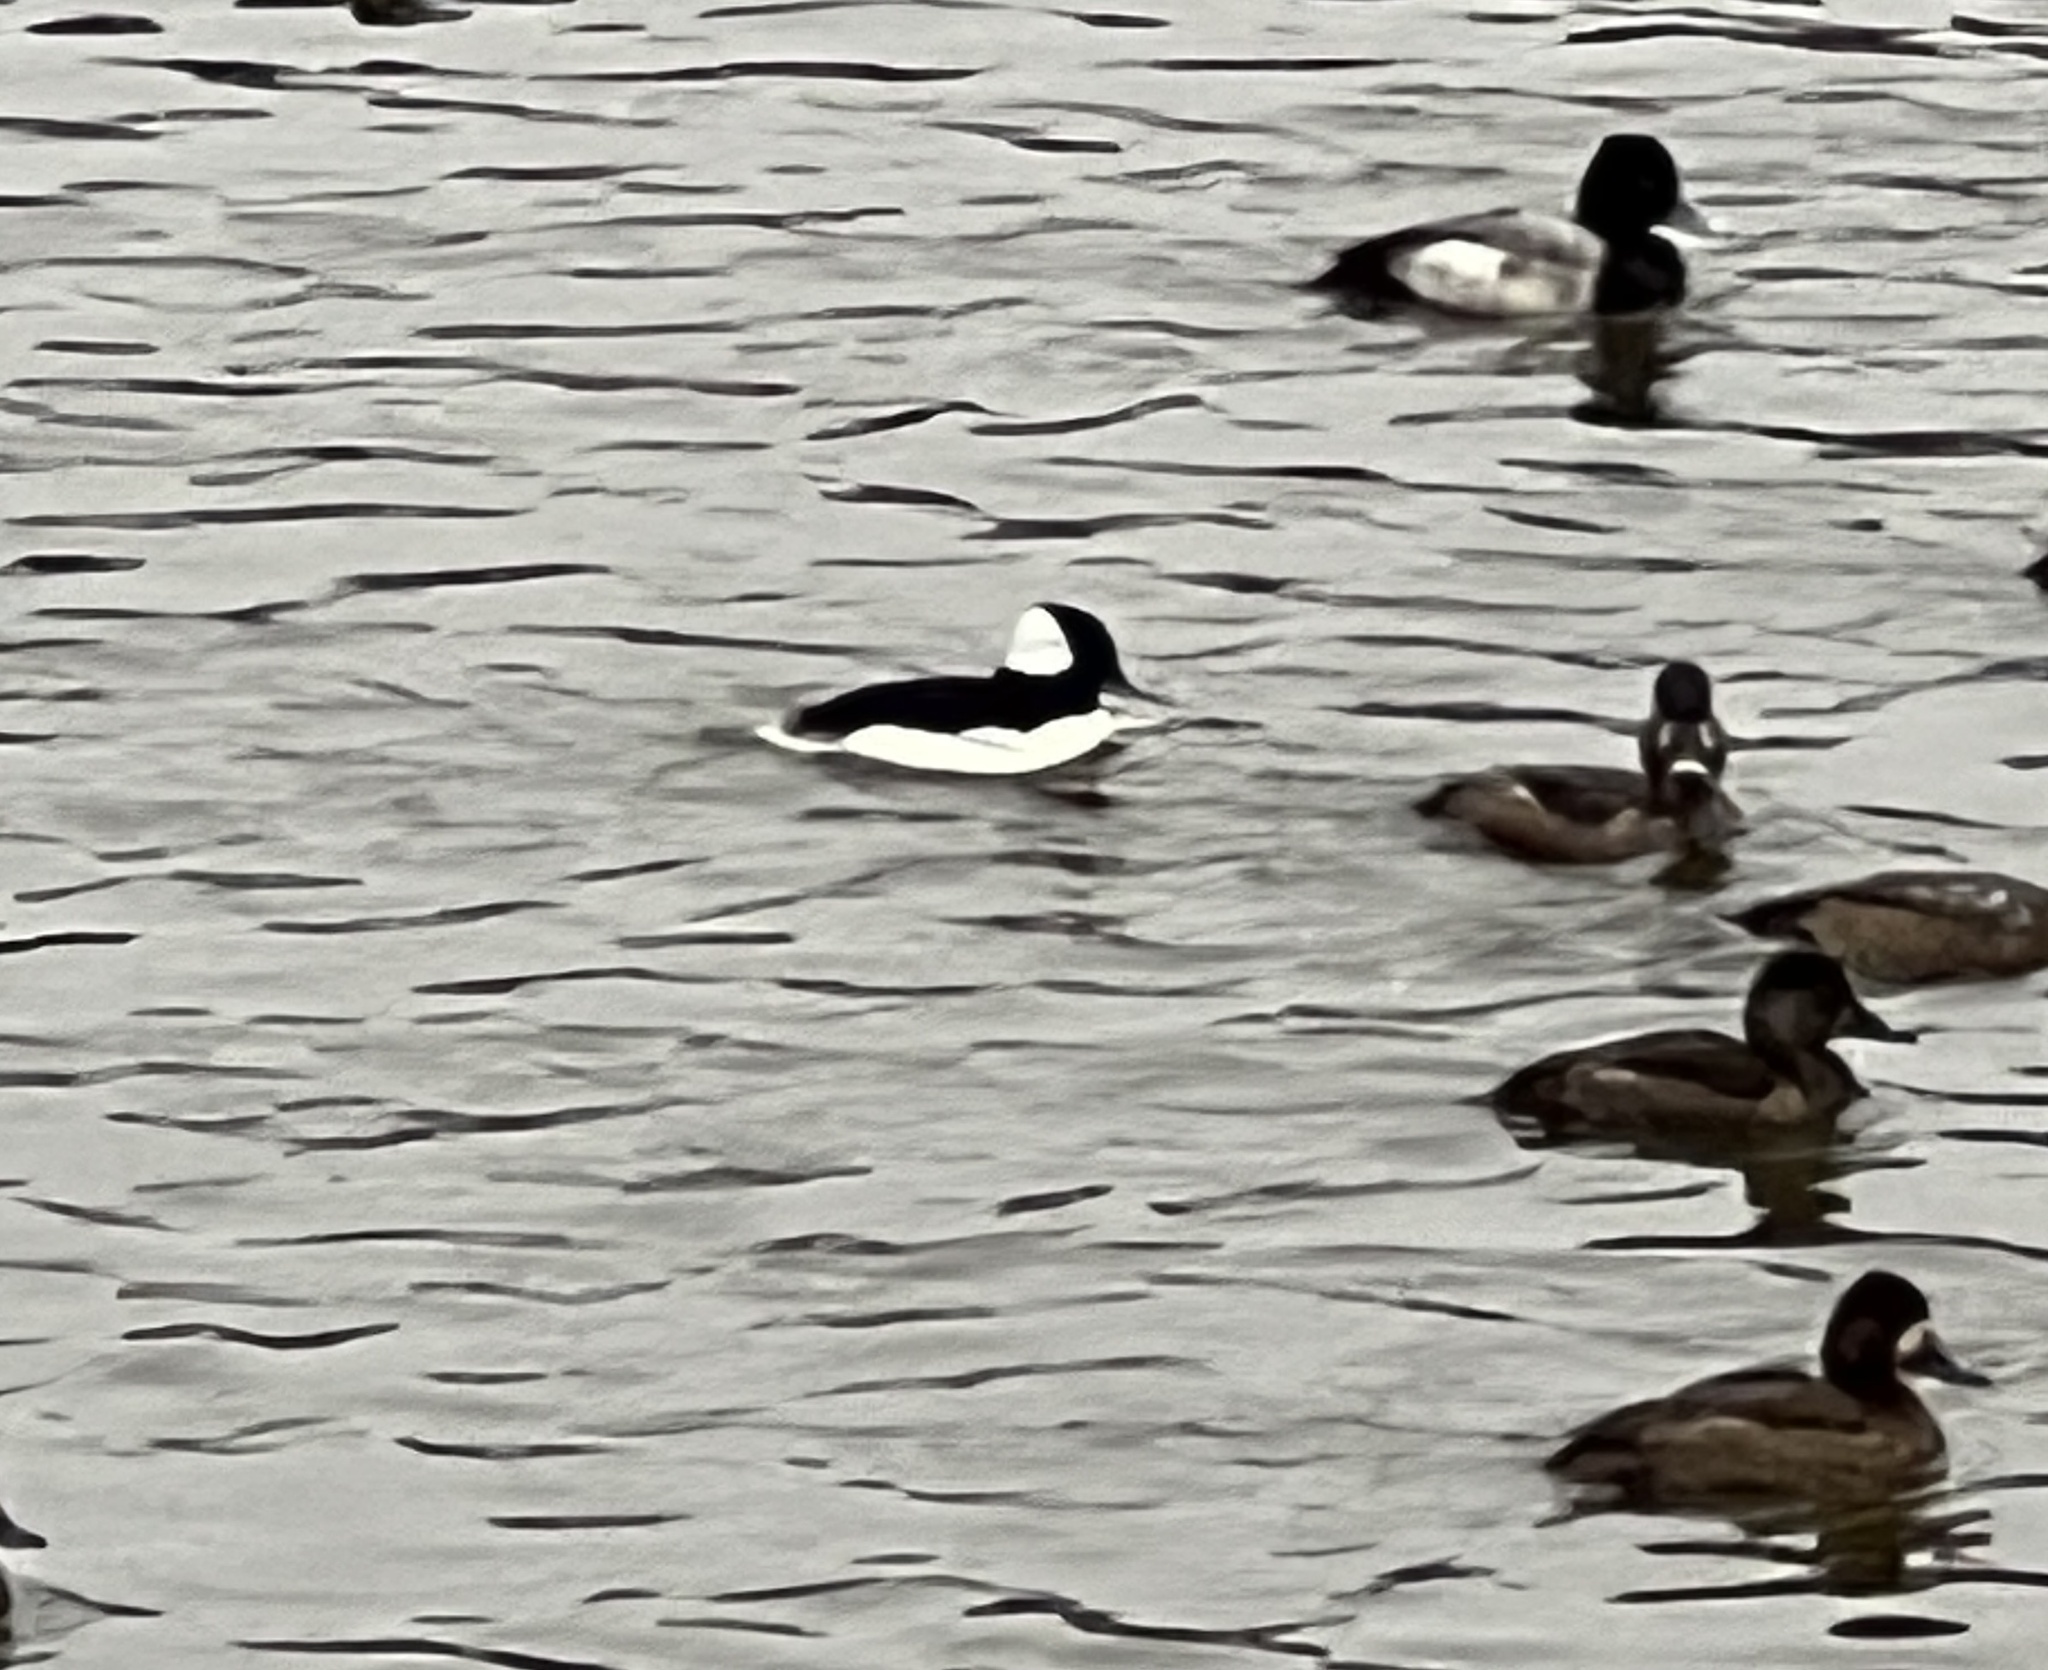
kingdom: Animalia
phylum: Chordata
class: Aves
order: Anseriformes
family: Anatidae
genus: Bucephala
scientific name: Bucephala albeola
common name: Bufflehead
